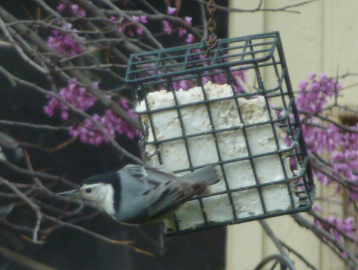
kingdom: Animalia
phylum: Chordata
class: Aves
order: Passeriformes
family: Sittidae
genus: Sitta
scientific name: Sitta carolinensis
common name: White-breasted nuthatch
